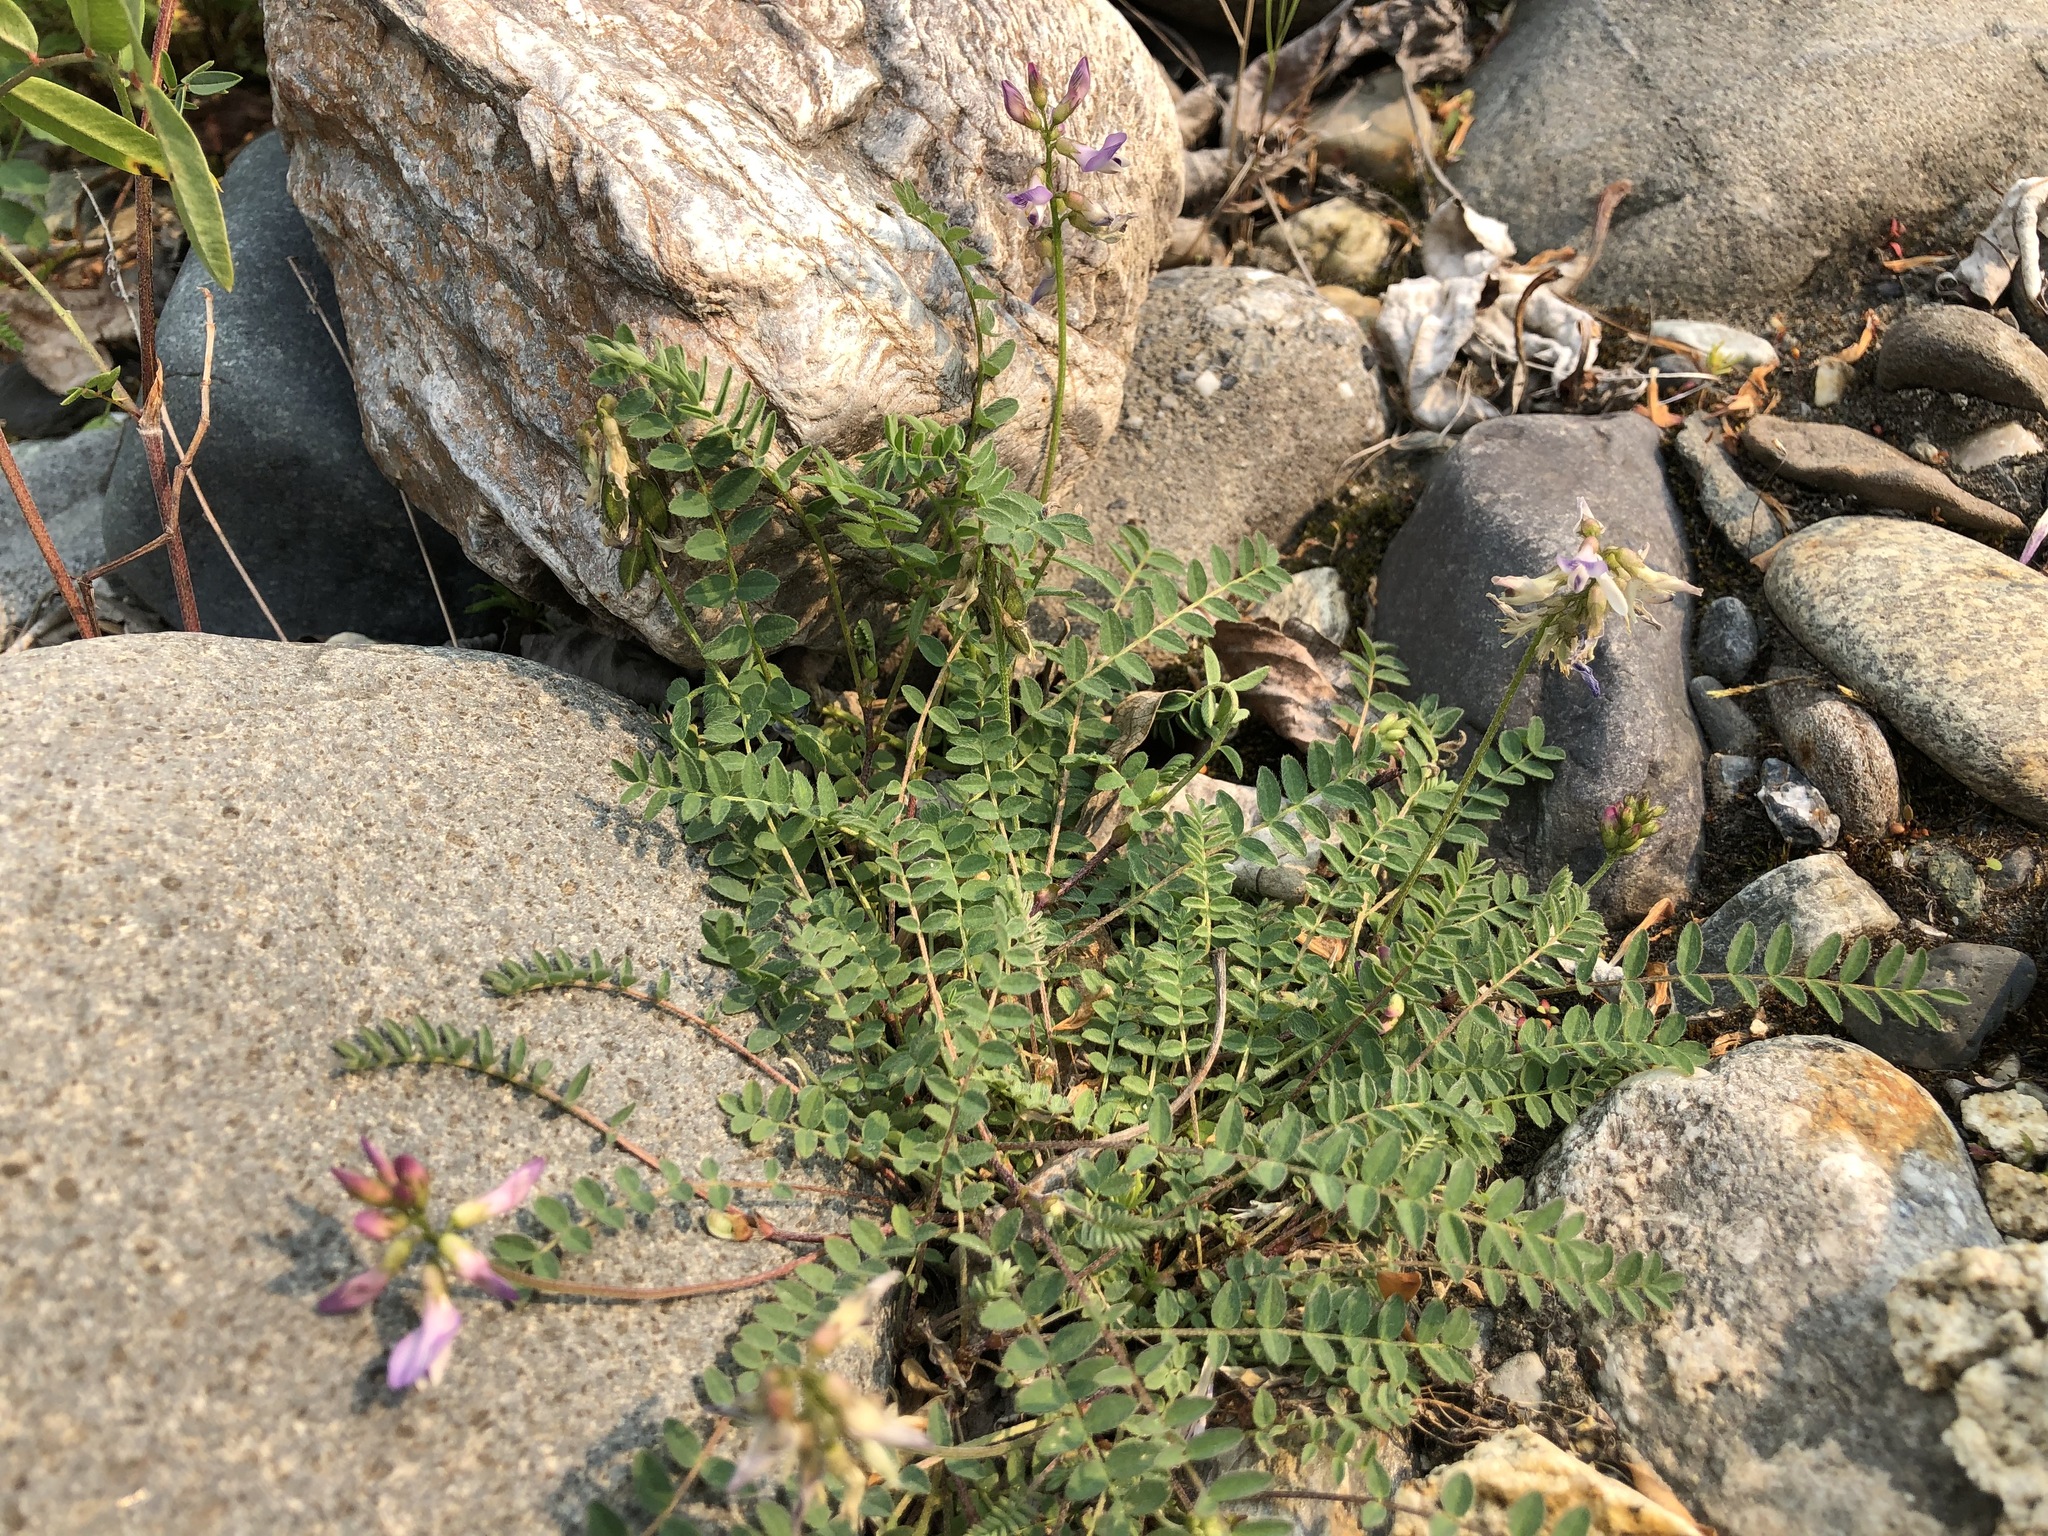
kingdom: Plantae
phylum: Tracheophyta
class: Magnoliopsida
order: Fabales
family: Fabaceae
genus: Astragalus
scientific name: Astragalus alpinus
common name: Alpine milk-vetch
